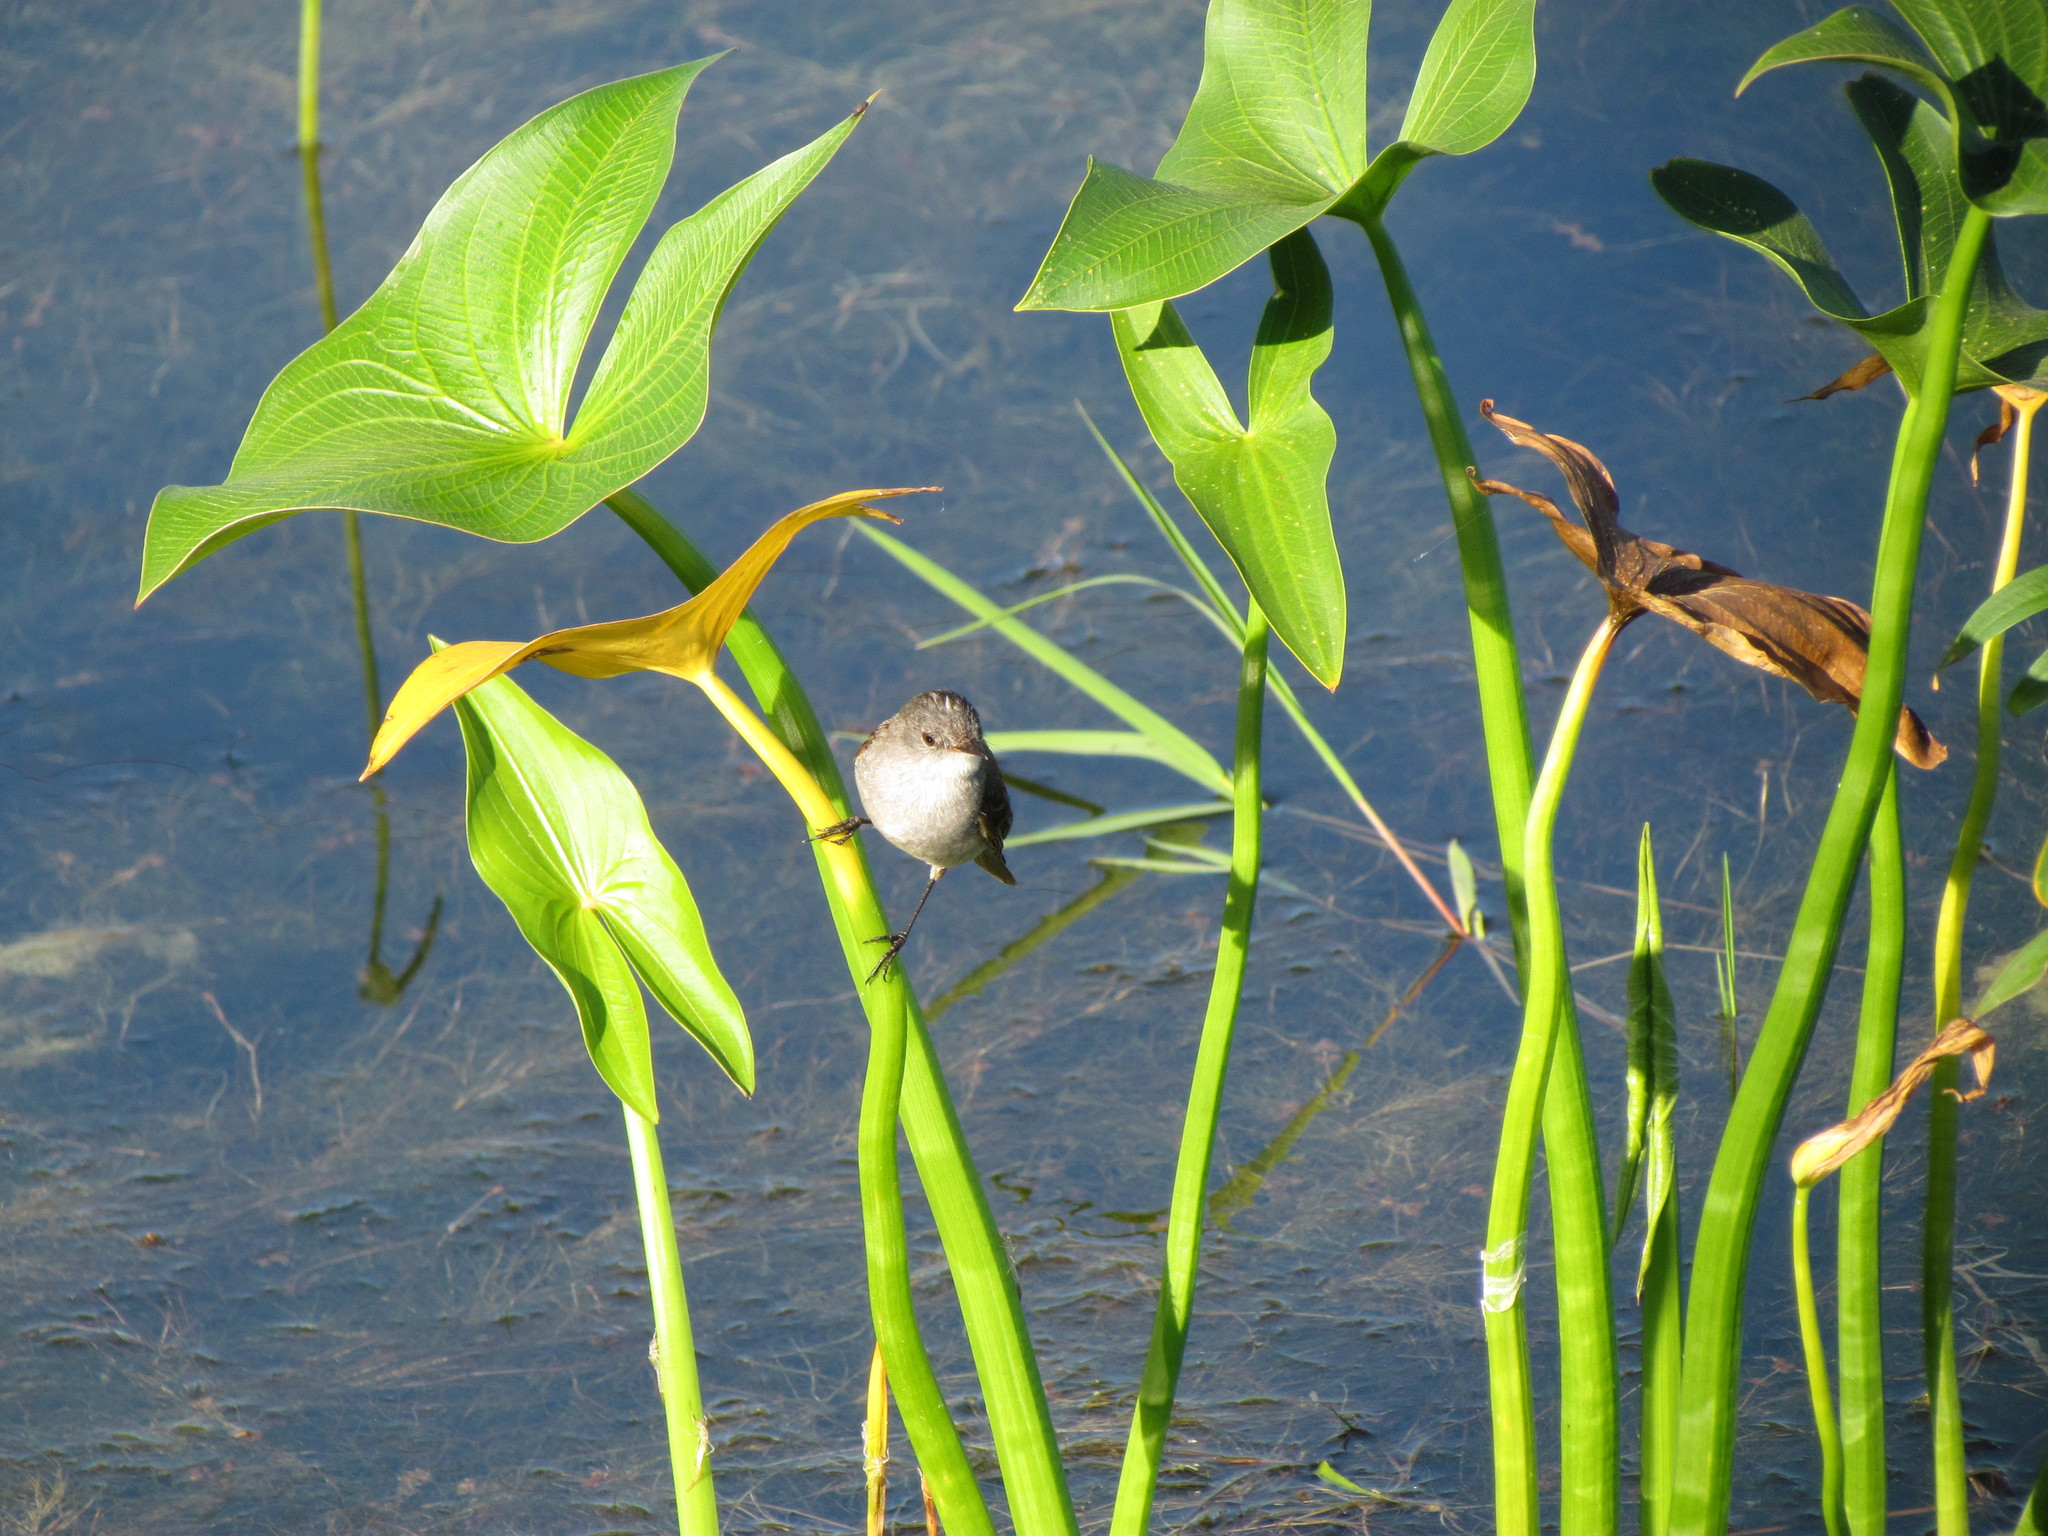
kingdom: Animalia
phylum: Chordata
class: Aves
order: Passeriformes
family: Tyrannidae
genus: Serpophaga
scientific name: Serpophaga nigricans
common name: Sooty tyrannulet
